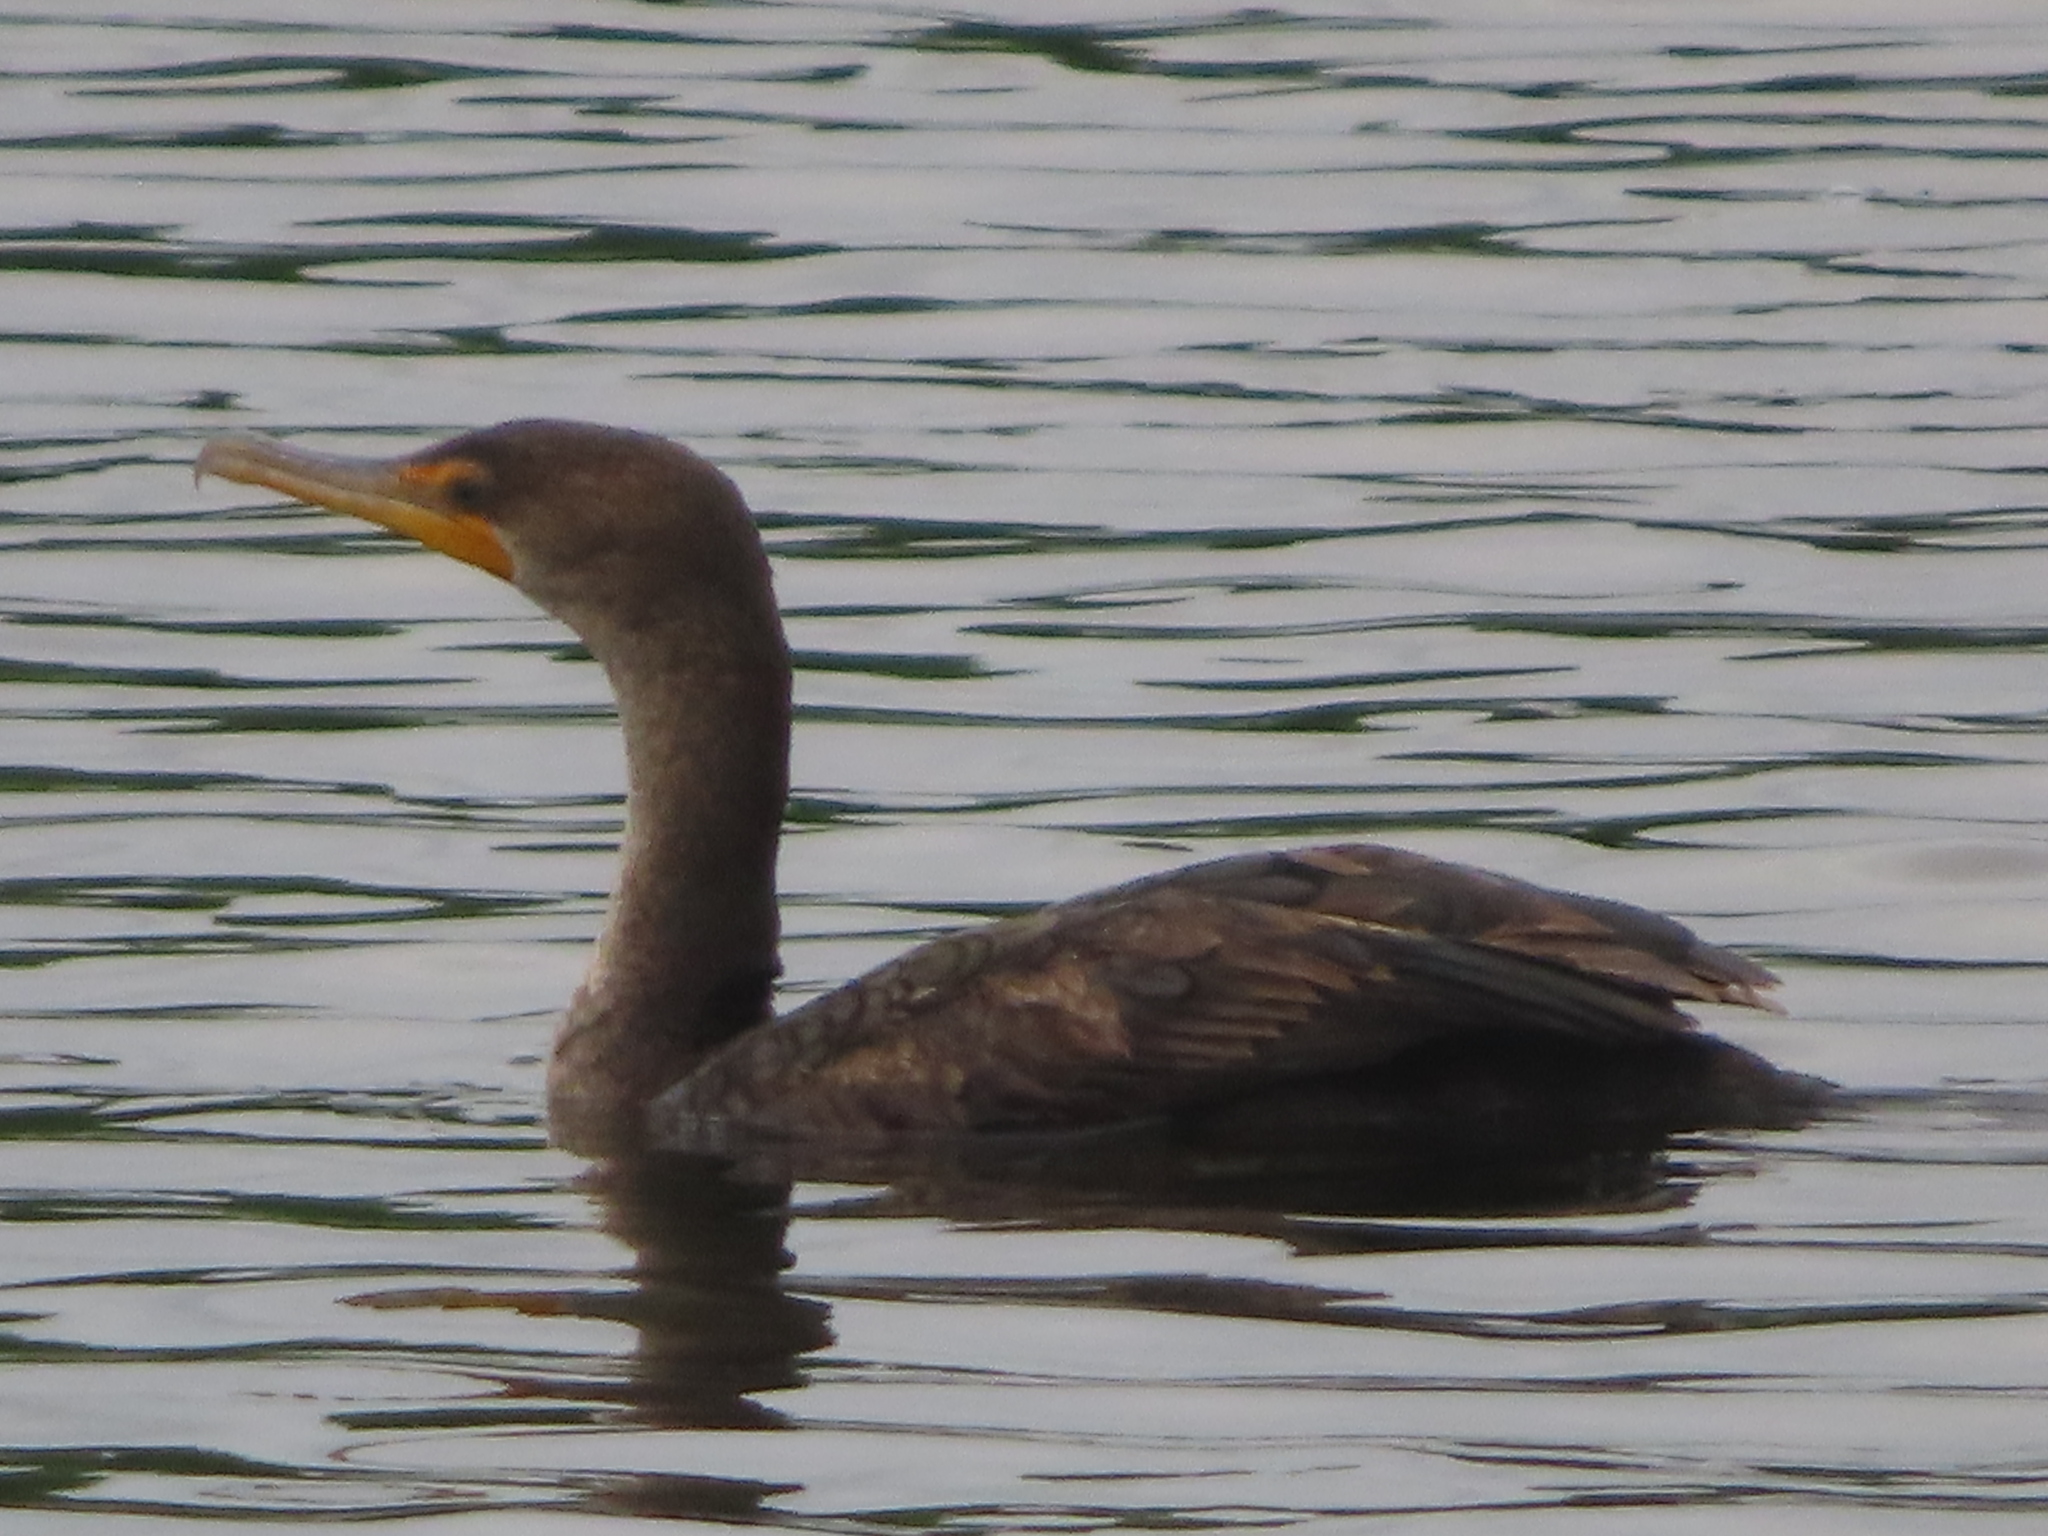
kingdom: Animalia
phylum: Chordata
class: Aves
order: Suliformes
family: Phalacrocoracidae
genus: Phalacrocorax
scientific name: Phalacrocorax auritus
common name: Double-crested cormorant
